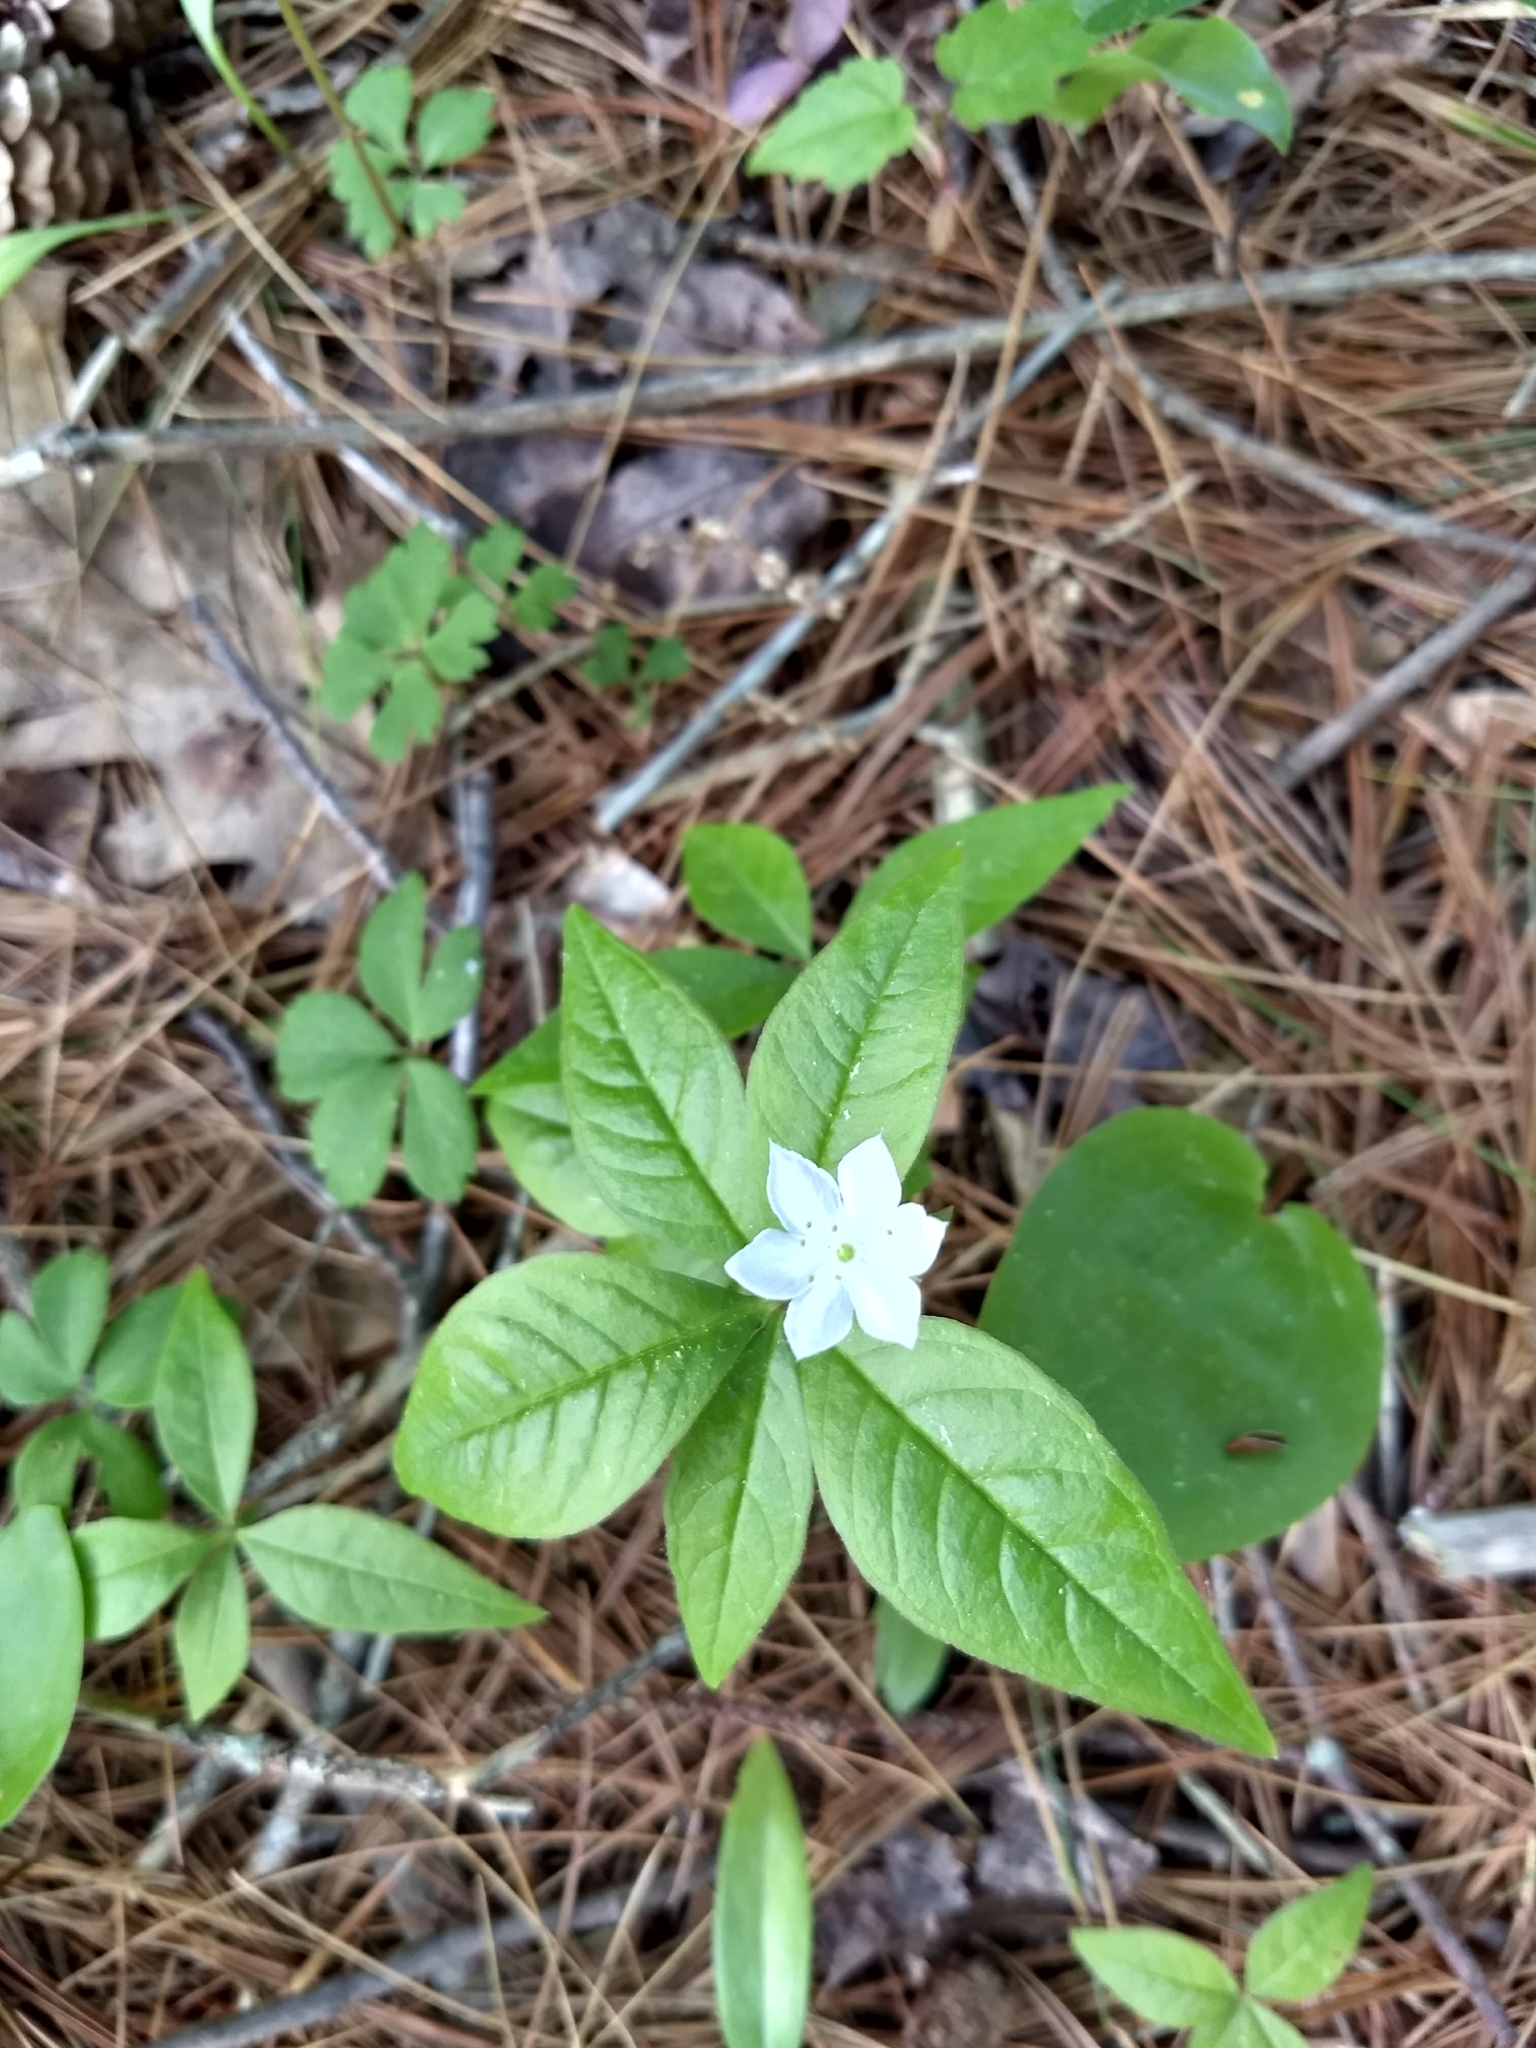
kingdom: Plantae
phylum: Tracheophyta
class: Magnoliopsida
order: Ericales
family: Primulaceae
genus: Lysimachia
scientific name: Lysimachia borealis
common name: American starflower
